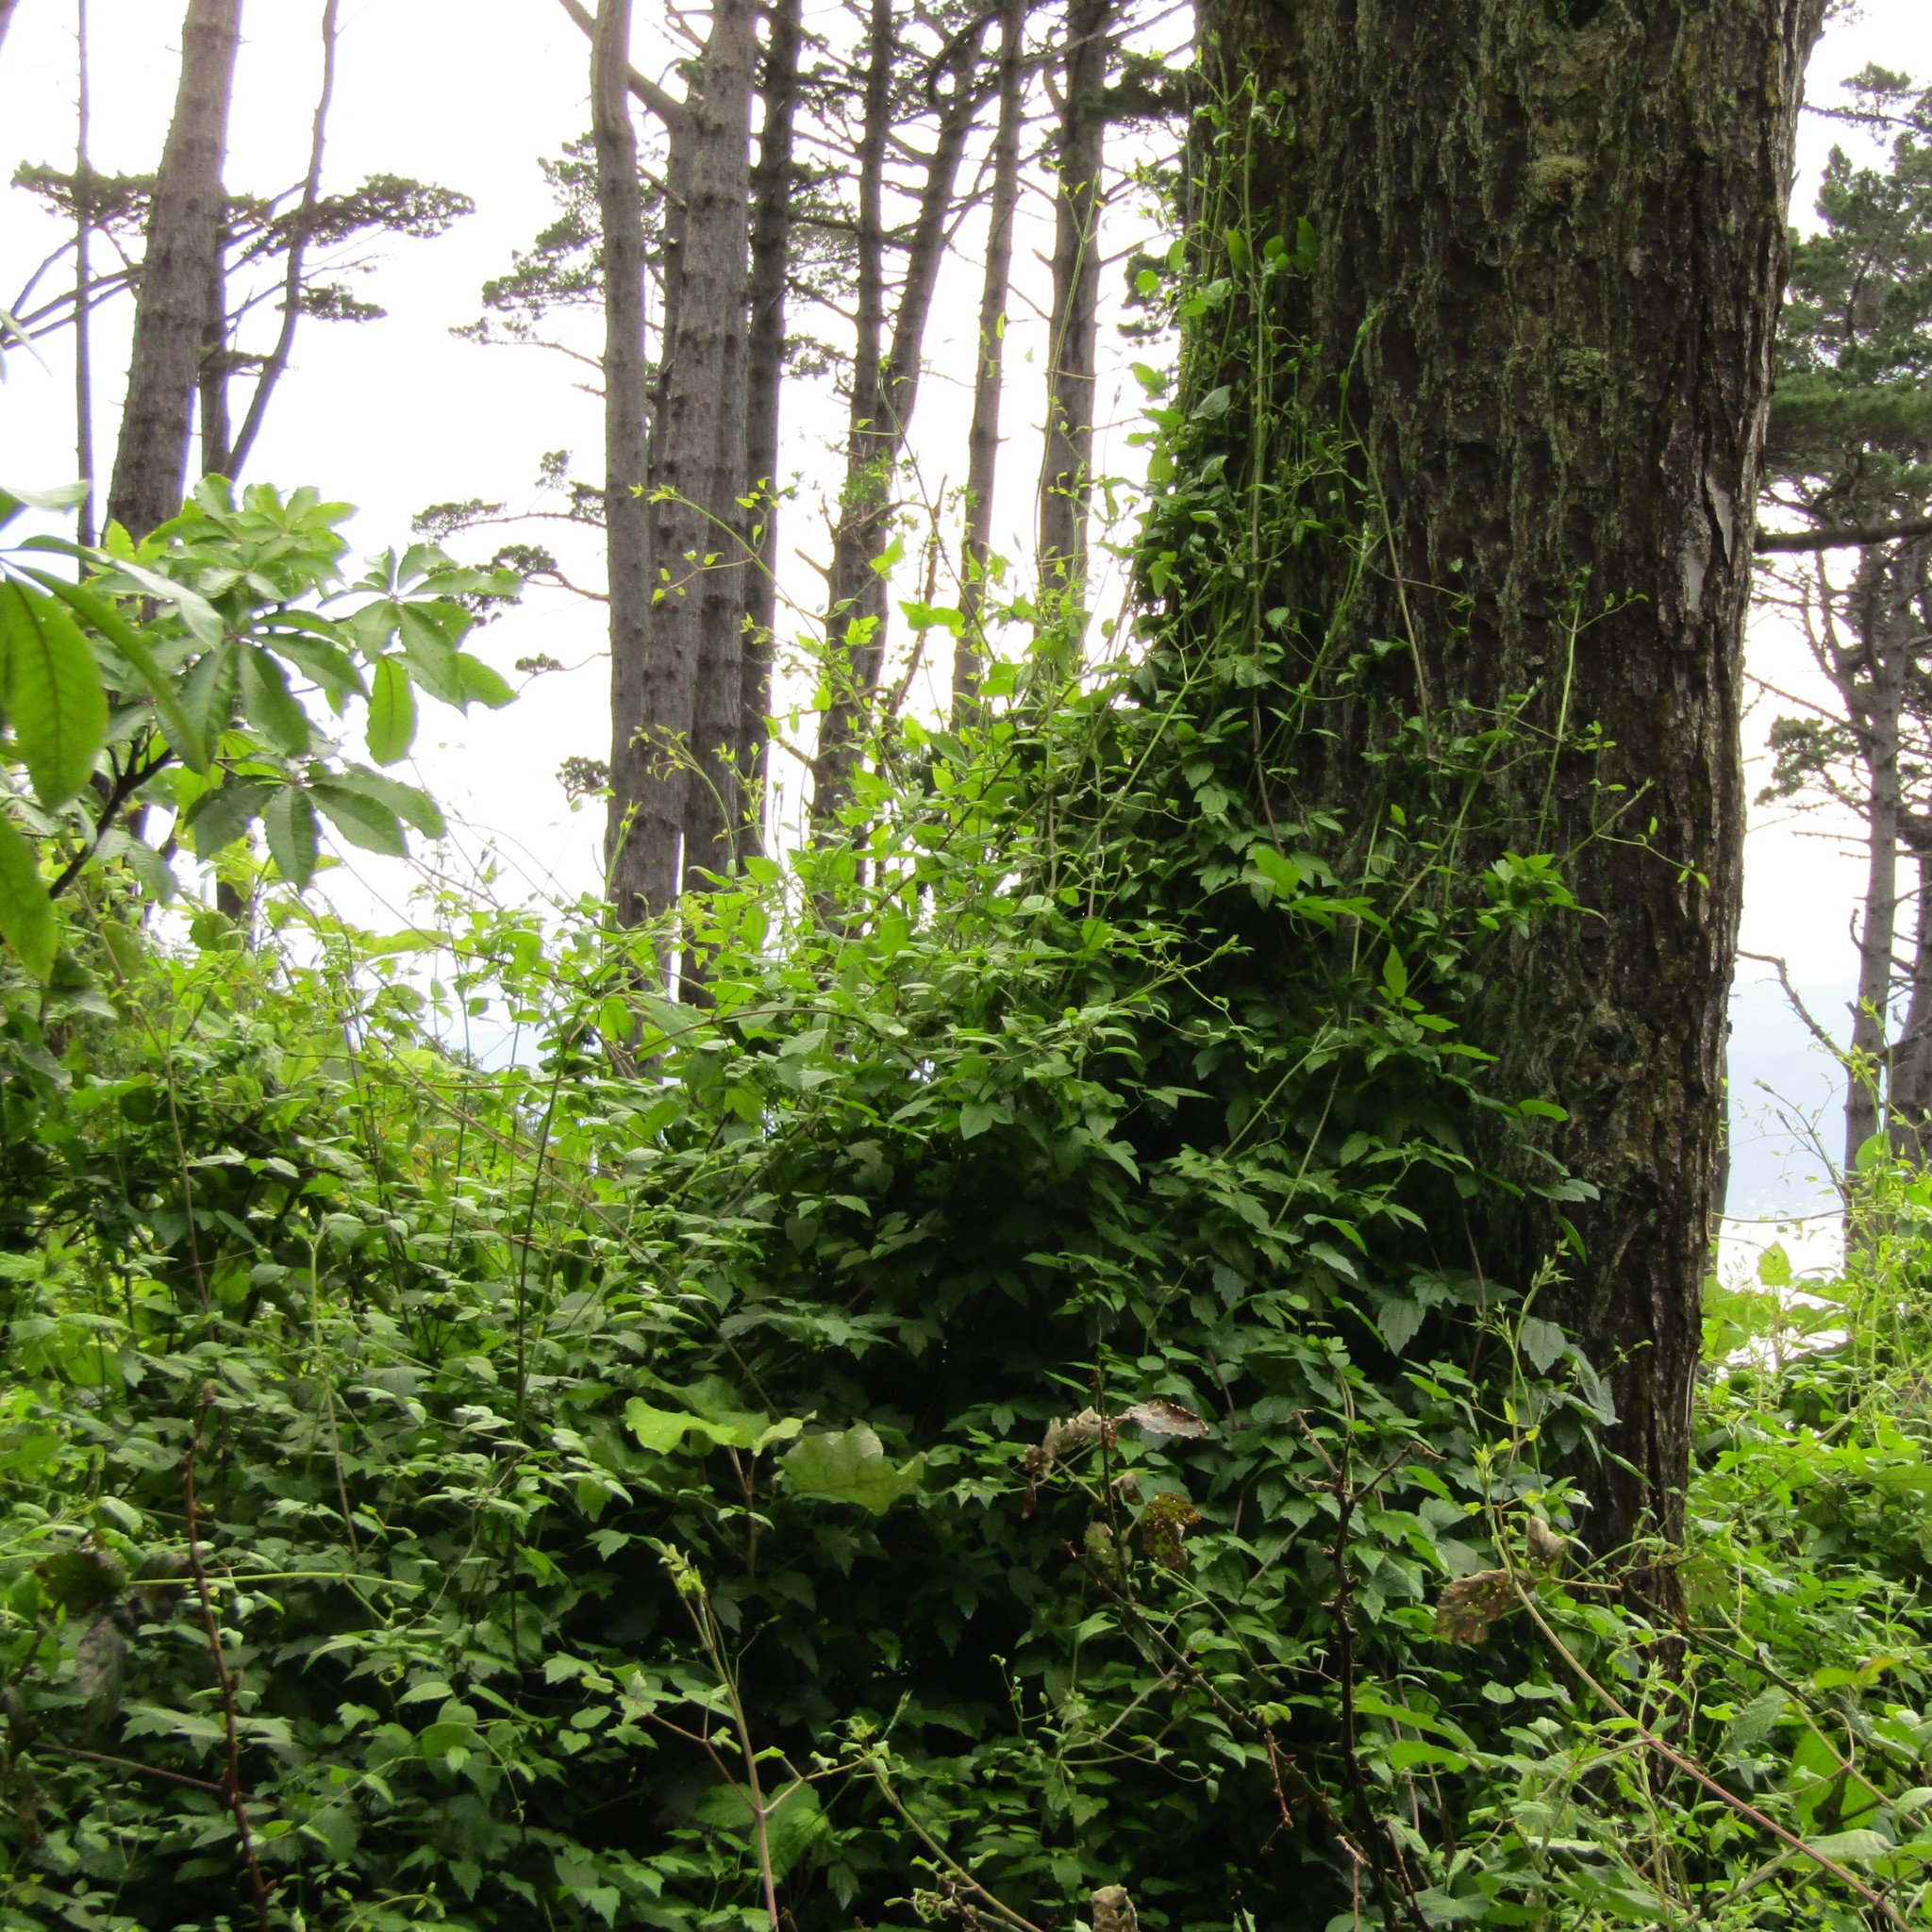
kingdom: Plantae
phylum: Tracheophyta
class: Magnoliopsida
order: Ranunculales
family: Ranunculaceae
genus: Clematis
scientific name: Clematis vitalba
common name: Evergreen clematis
